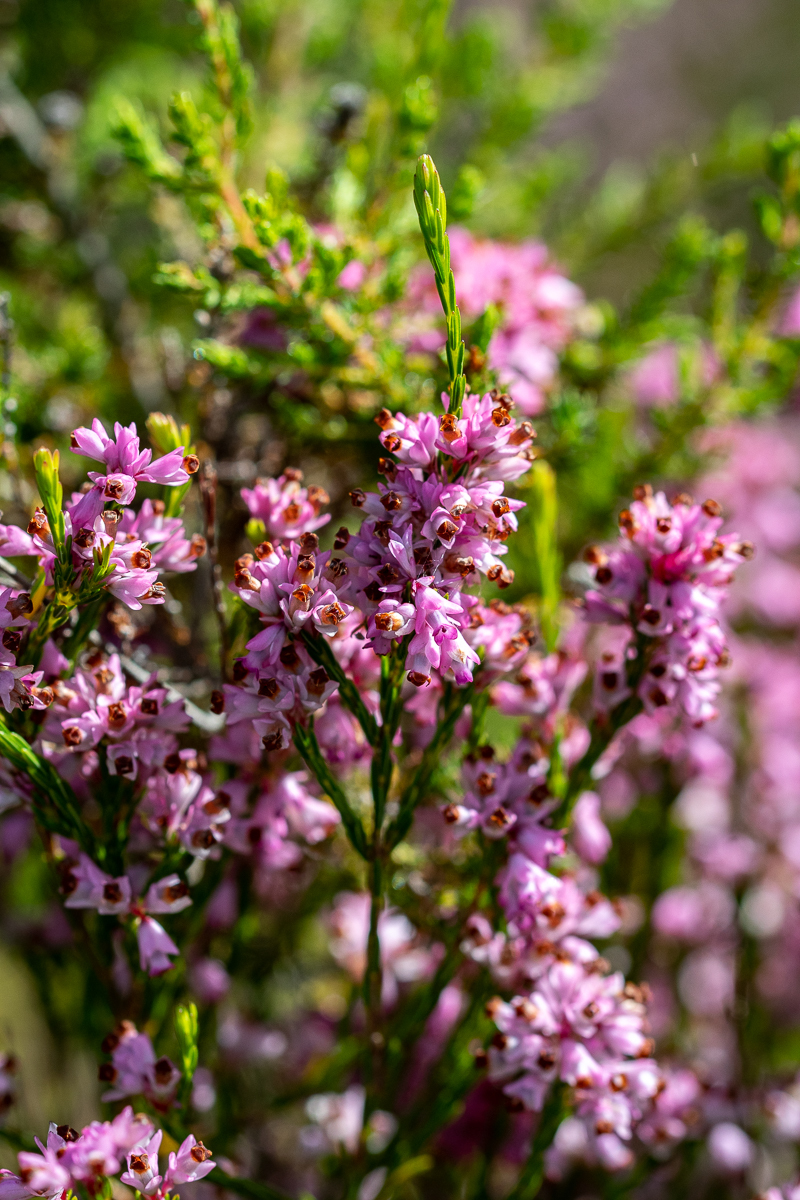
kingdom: Plantae
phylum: Tracheophyta
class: Magnoliopsida
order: Ericales
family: Ericaceae
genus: Erica
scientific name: Erica corifolia
